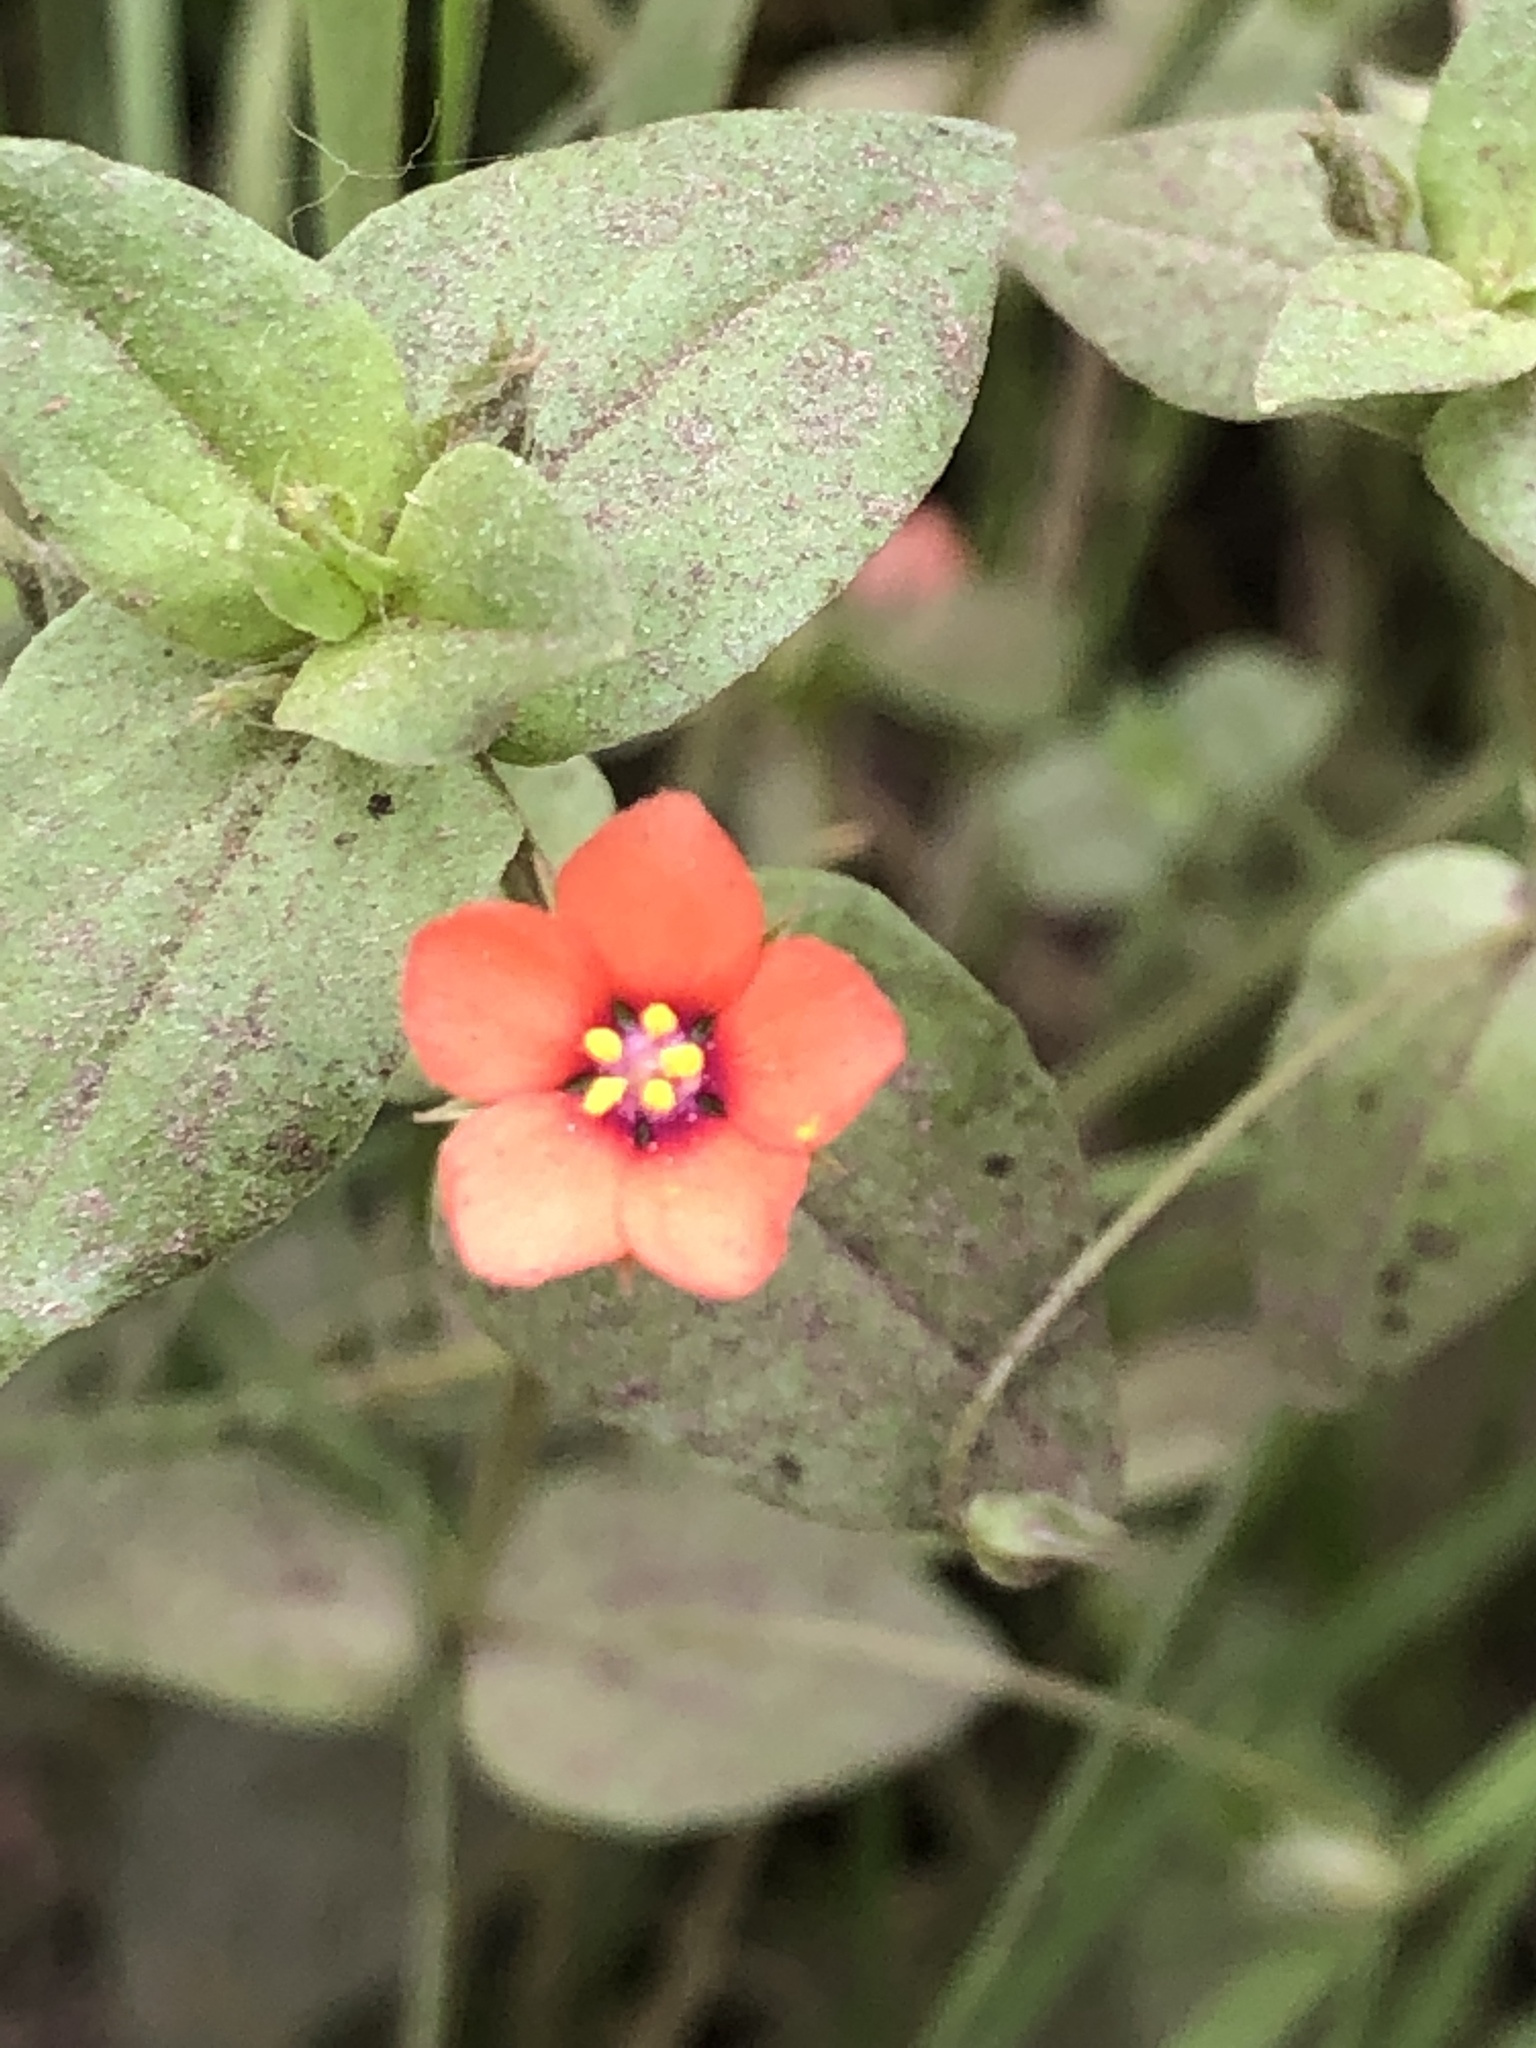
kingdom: Plantae
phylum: Tracheophyta
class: Magnoliopsida
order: Ericales
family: Primulaceae
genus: Lysimachia
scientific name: Lysimachia arvensis
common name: Scarlet pimpernel
